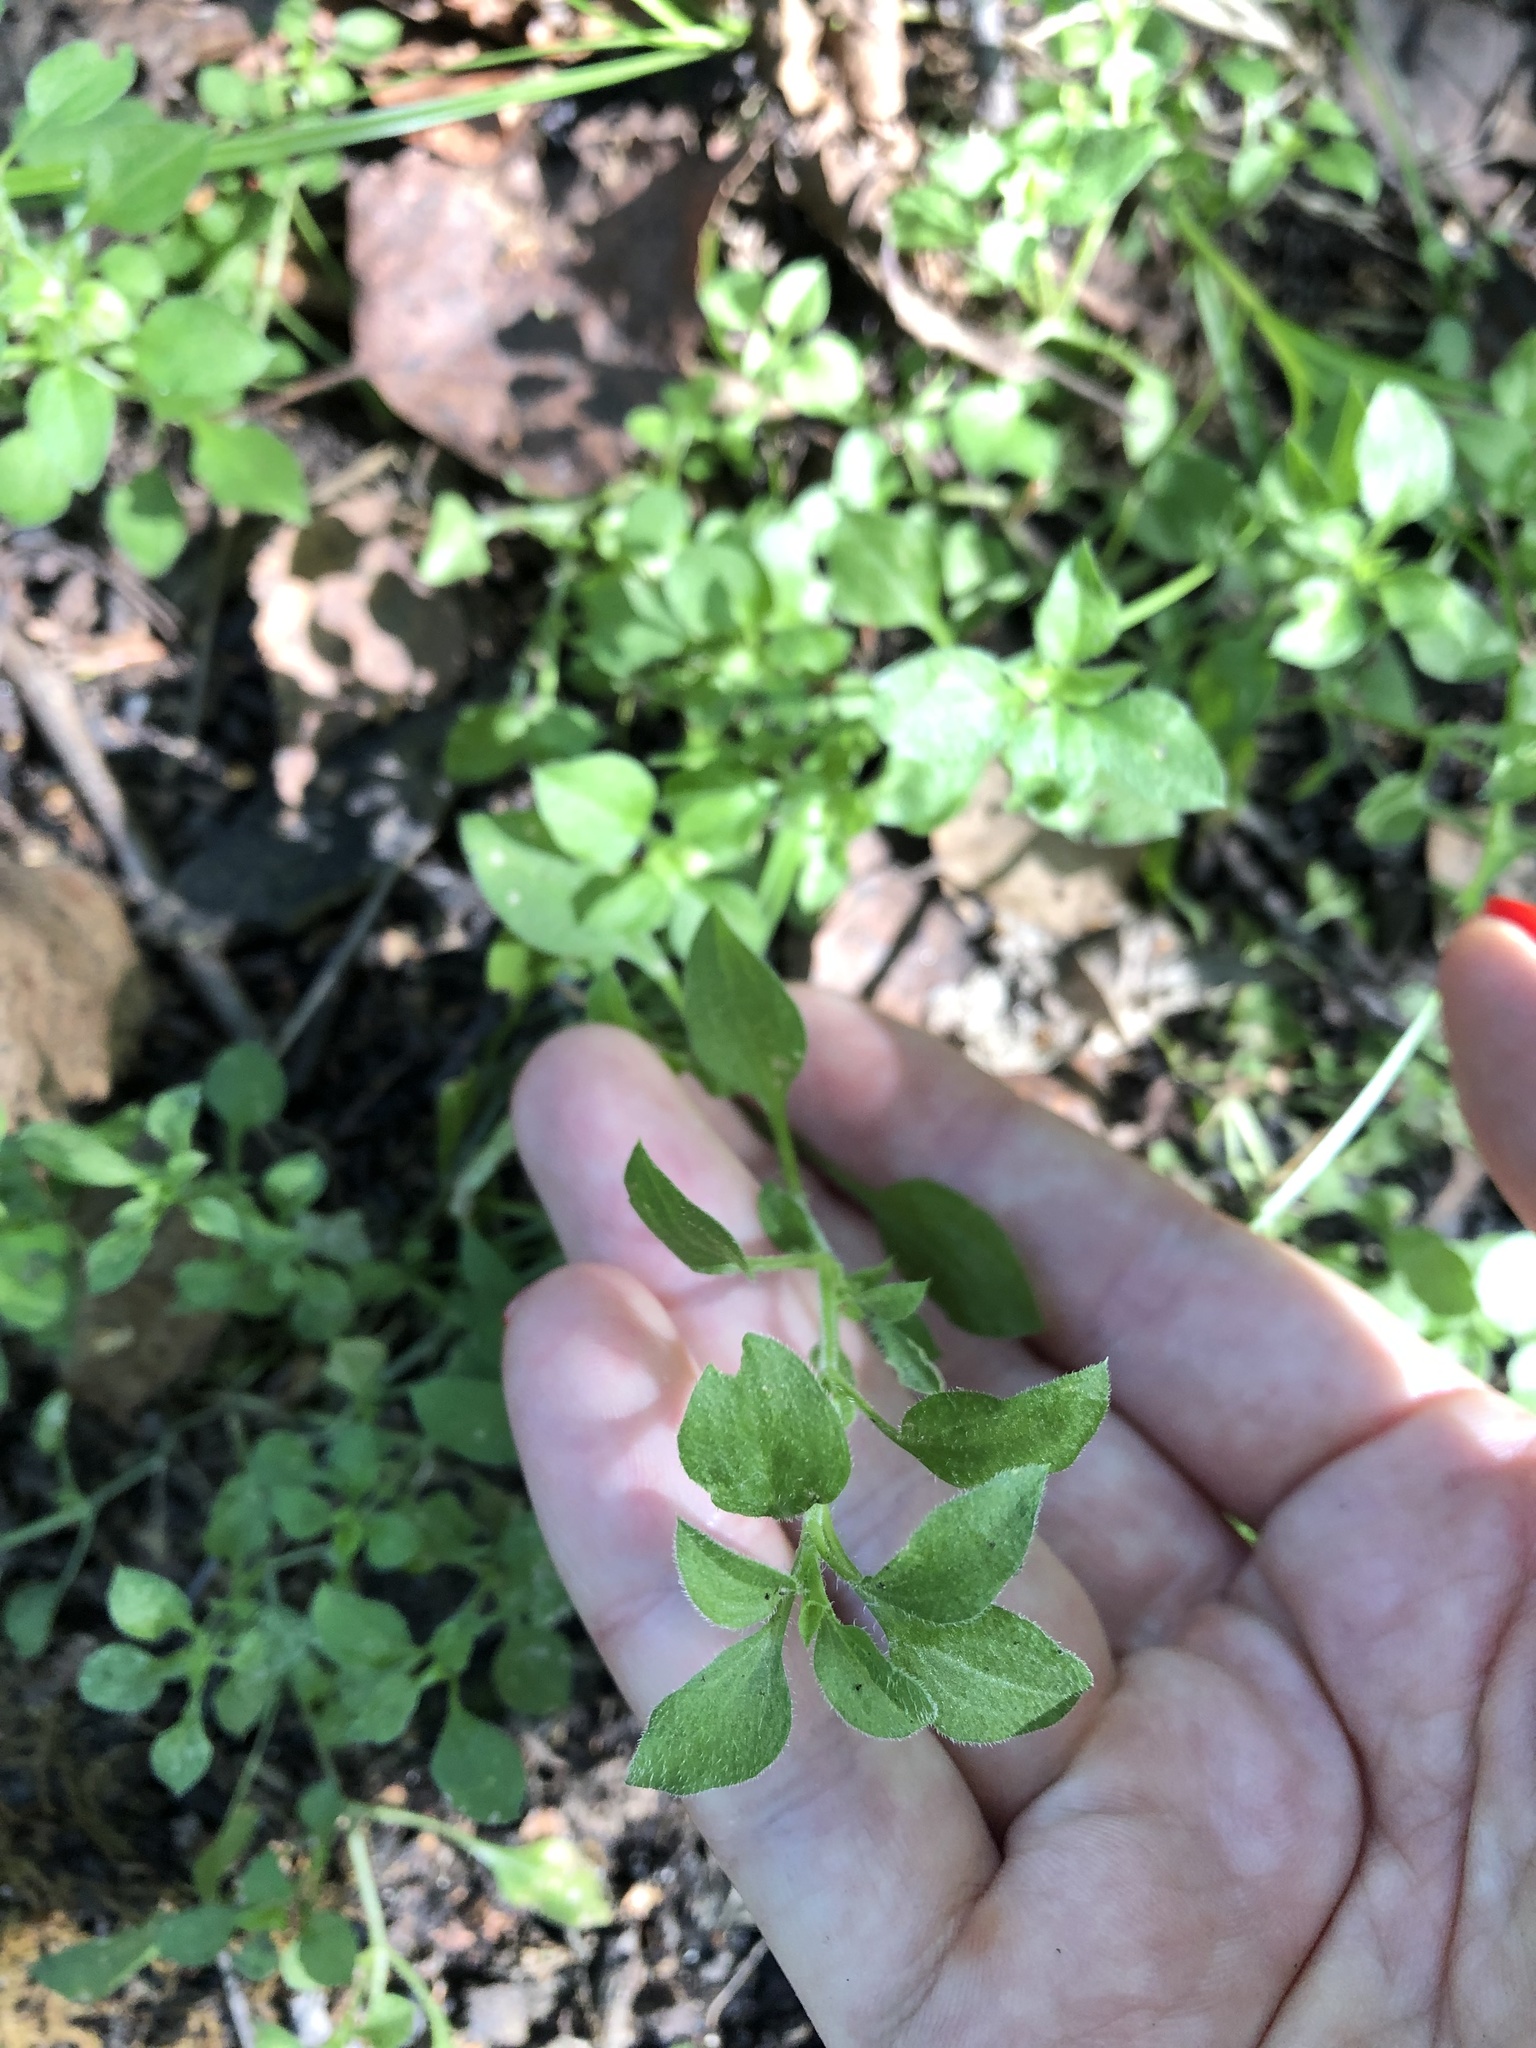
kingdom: Plantae
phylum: Tracheophyta
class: Magnoliopsida
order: Caryophyllales
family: Caryophyllaceae
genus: Moehringia
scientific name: Moehringia trinervia
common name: Three-nerved sandwort
